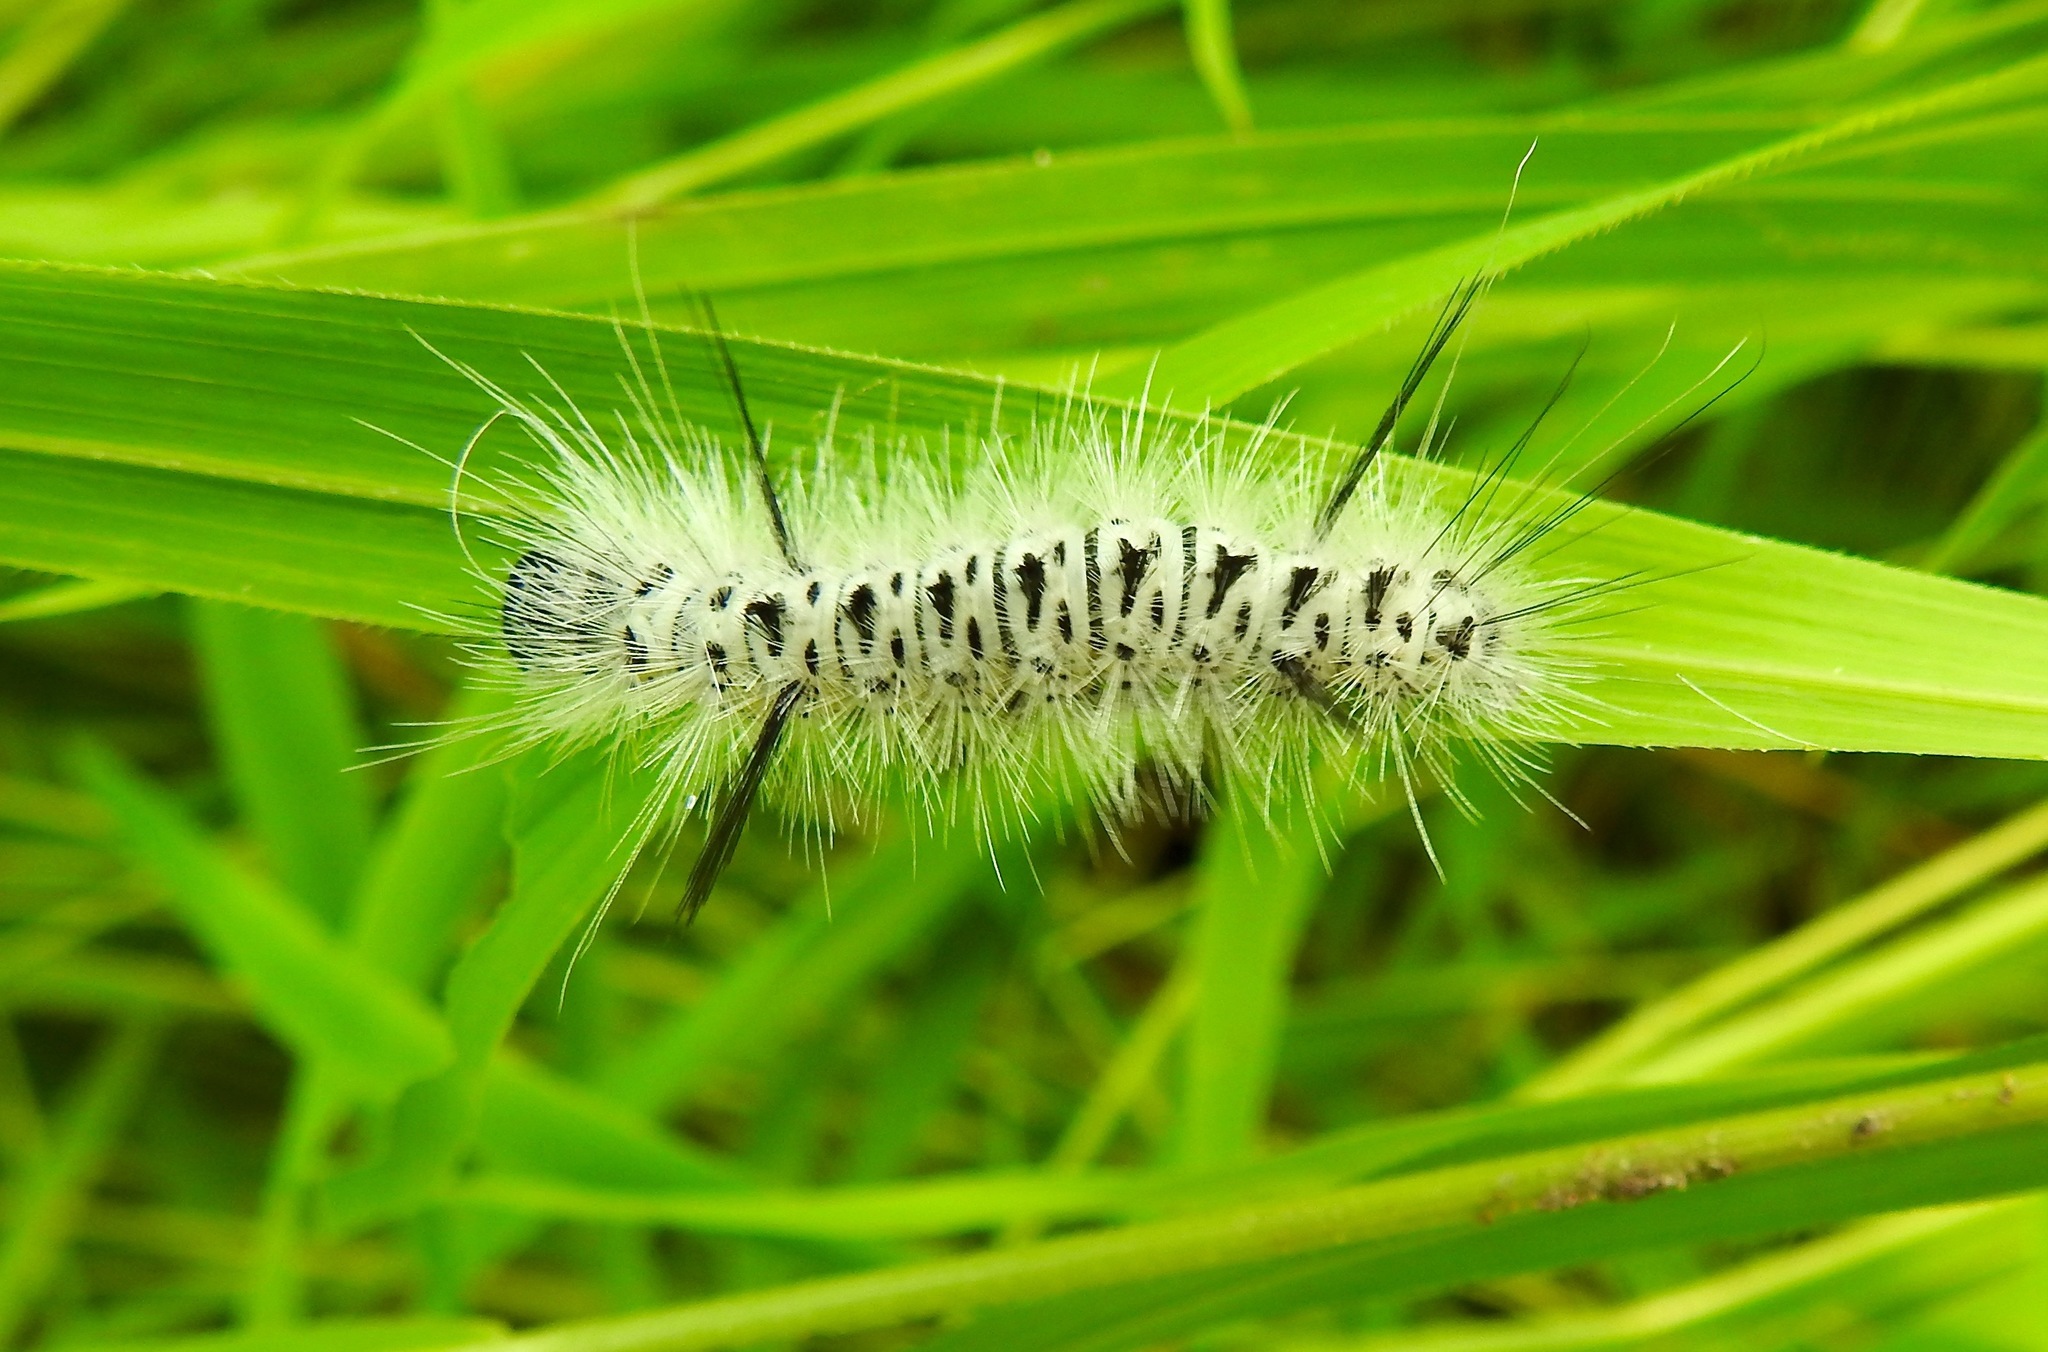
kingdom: Animalia
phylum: Arthropoda
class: Insecta
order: Lepidoptera
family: Erebidae
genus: Lophocampa
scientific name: Lophocampa caryae
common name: Hickory tussock moth
